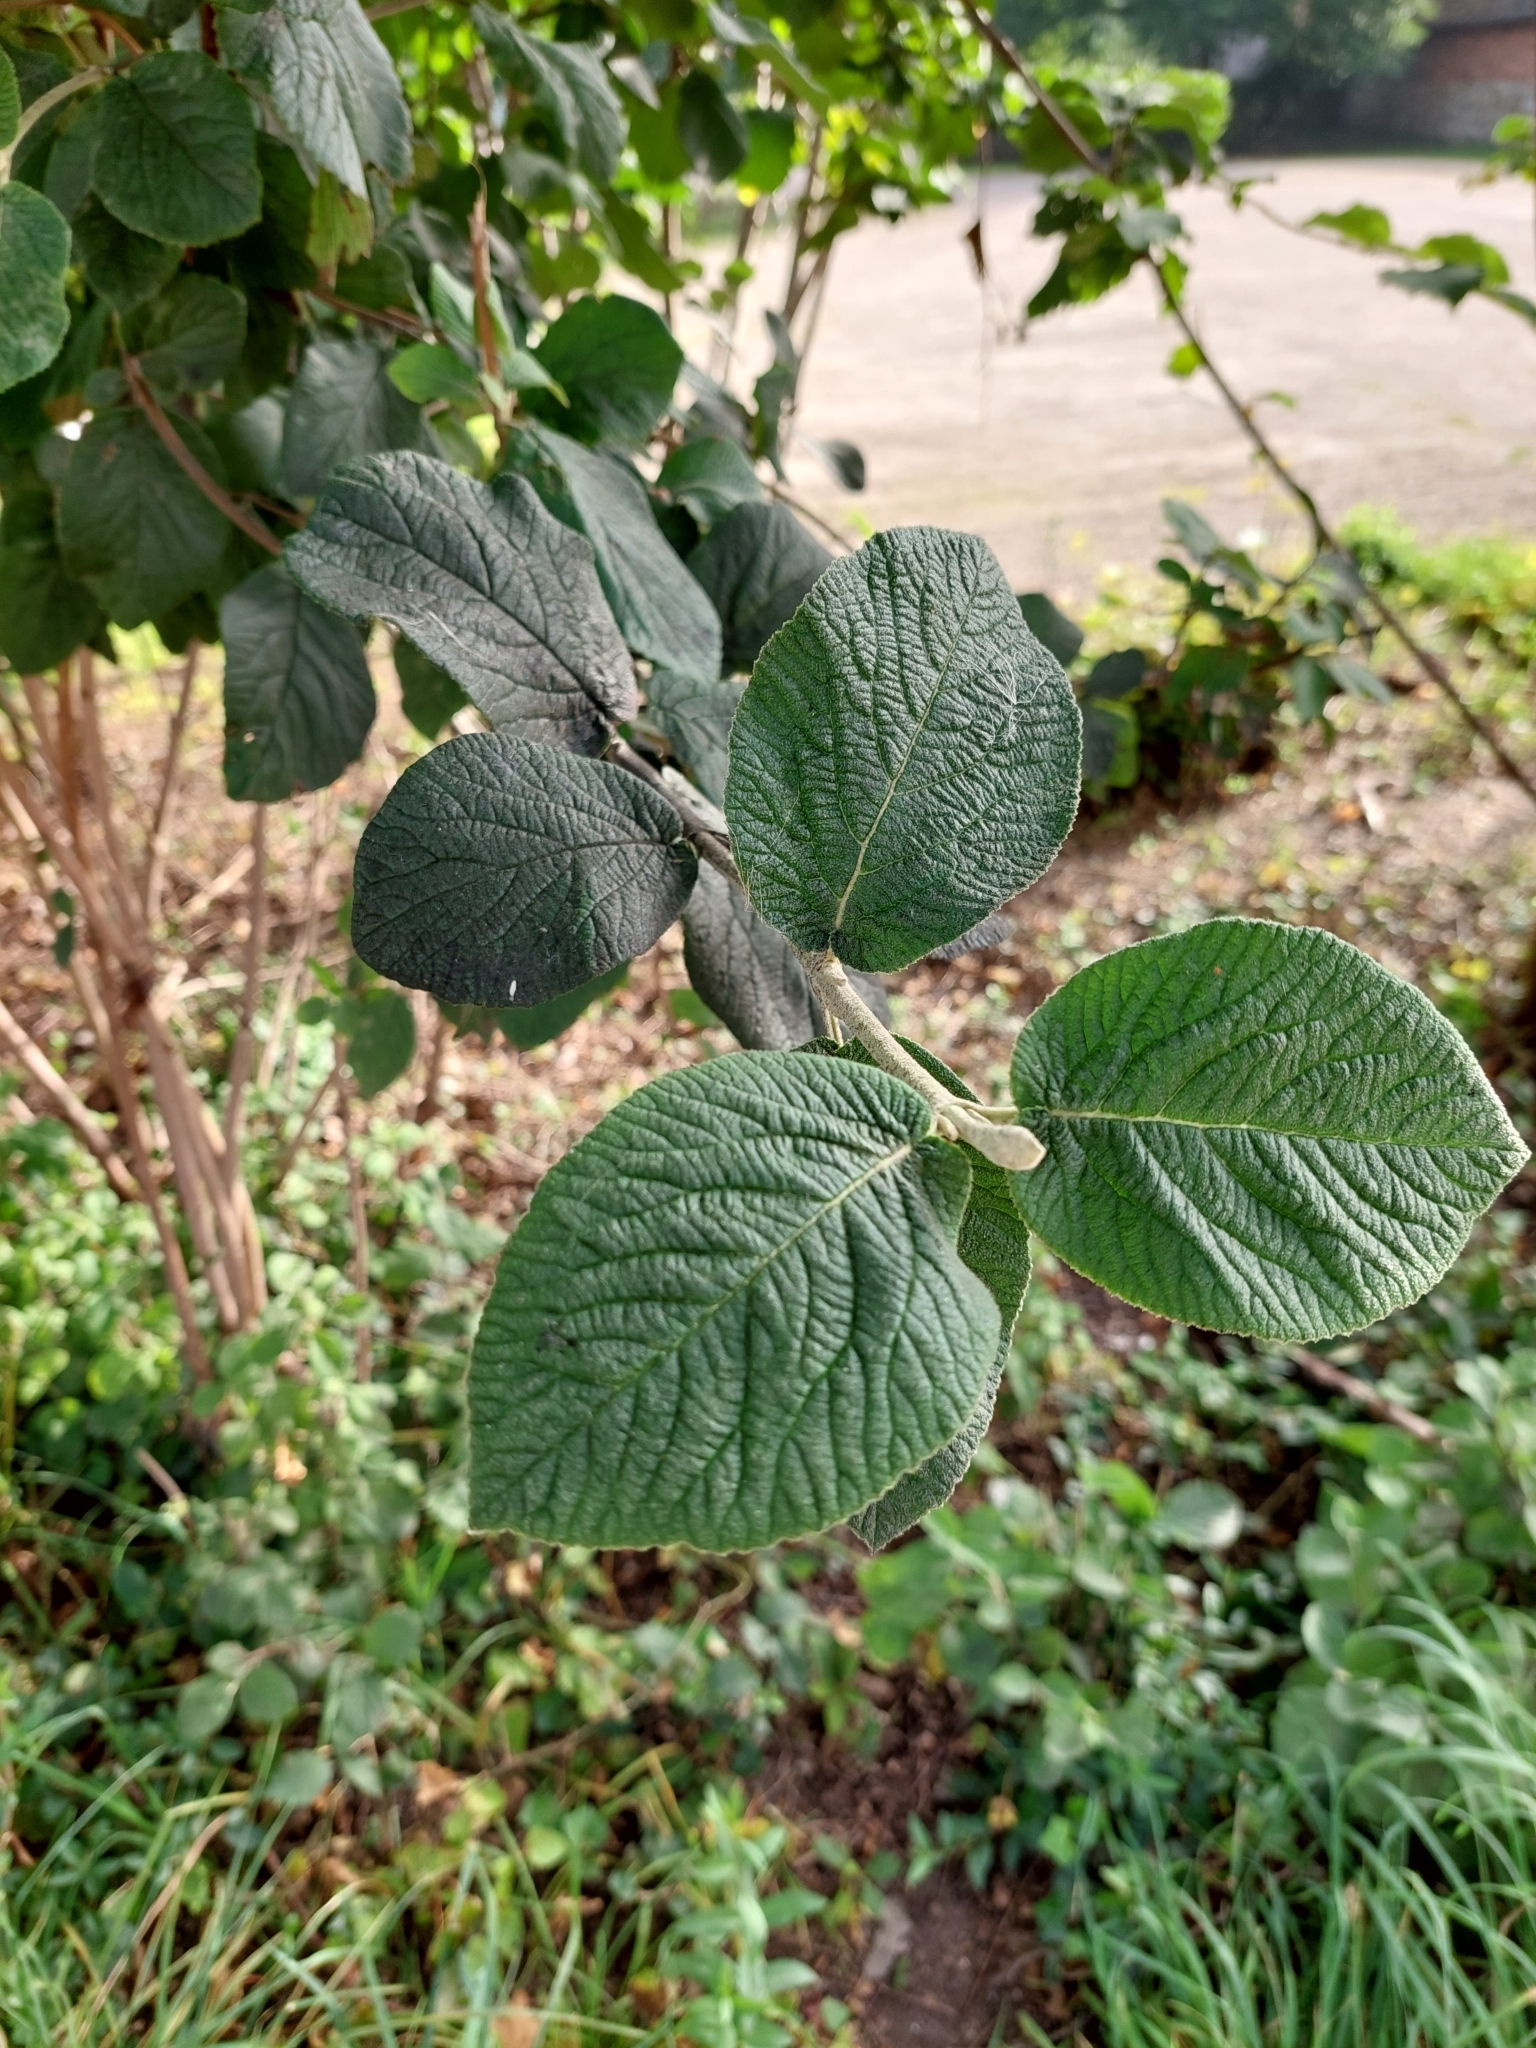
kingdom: Plantae
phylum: Tracheophyta
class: Magnoliopsida
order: Dipsacales
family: Viburnaceae
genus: Viburnum
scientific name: Viburnum lantana
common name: Wayfaring tree
